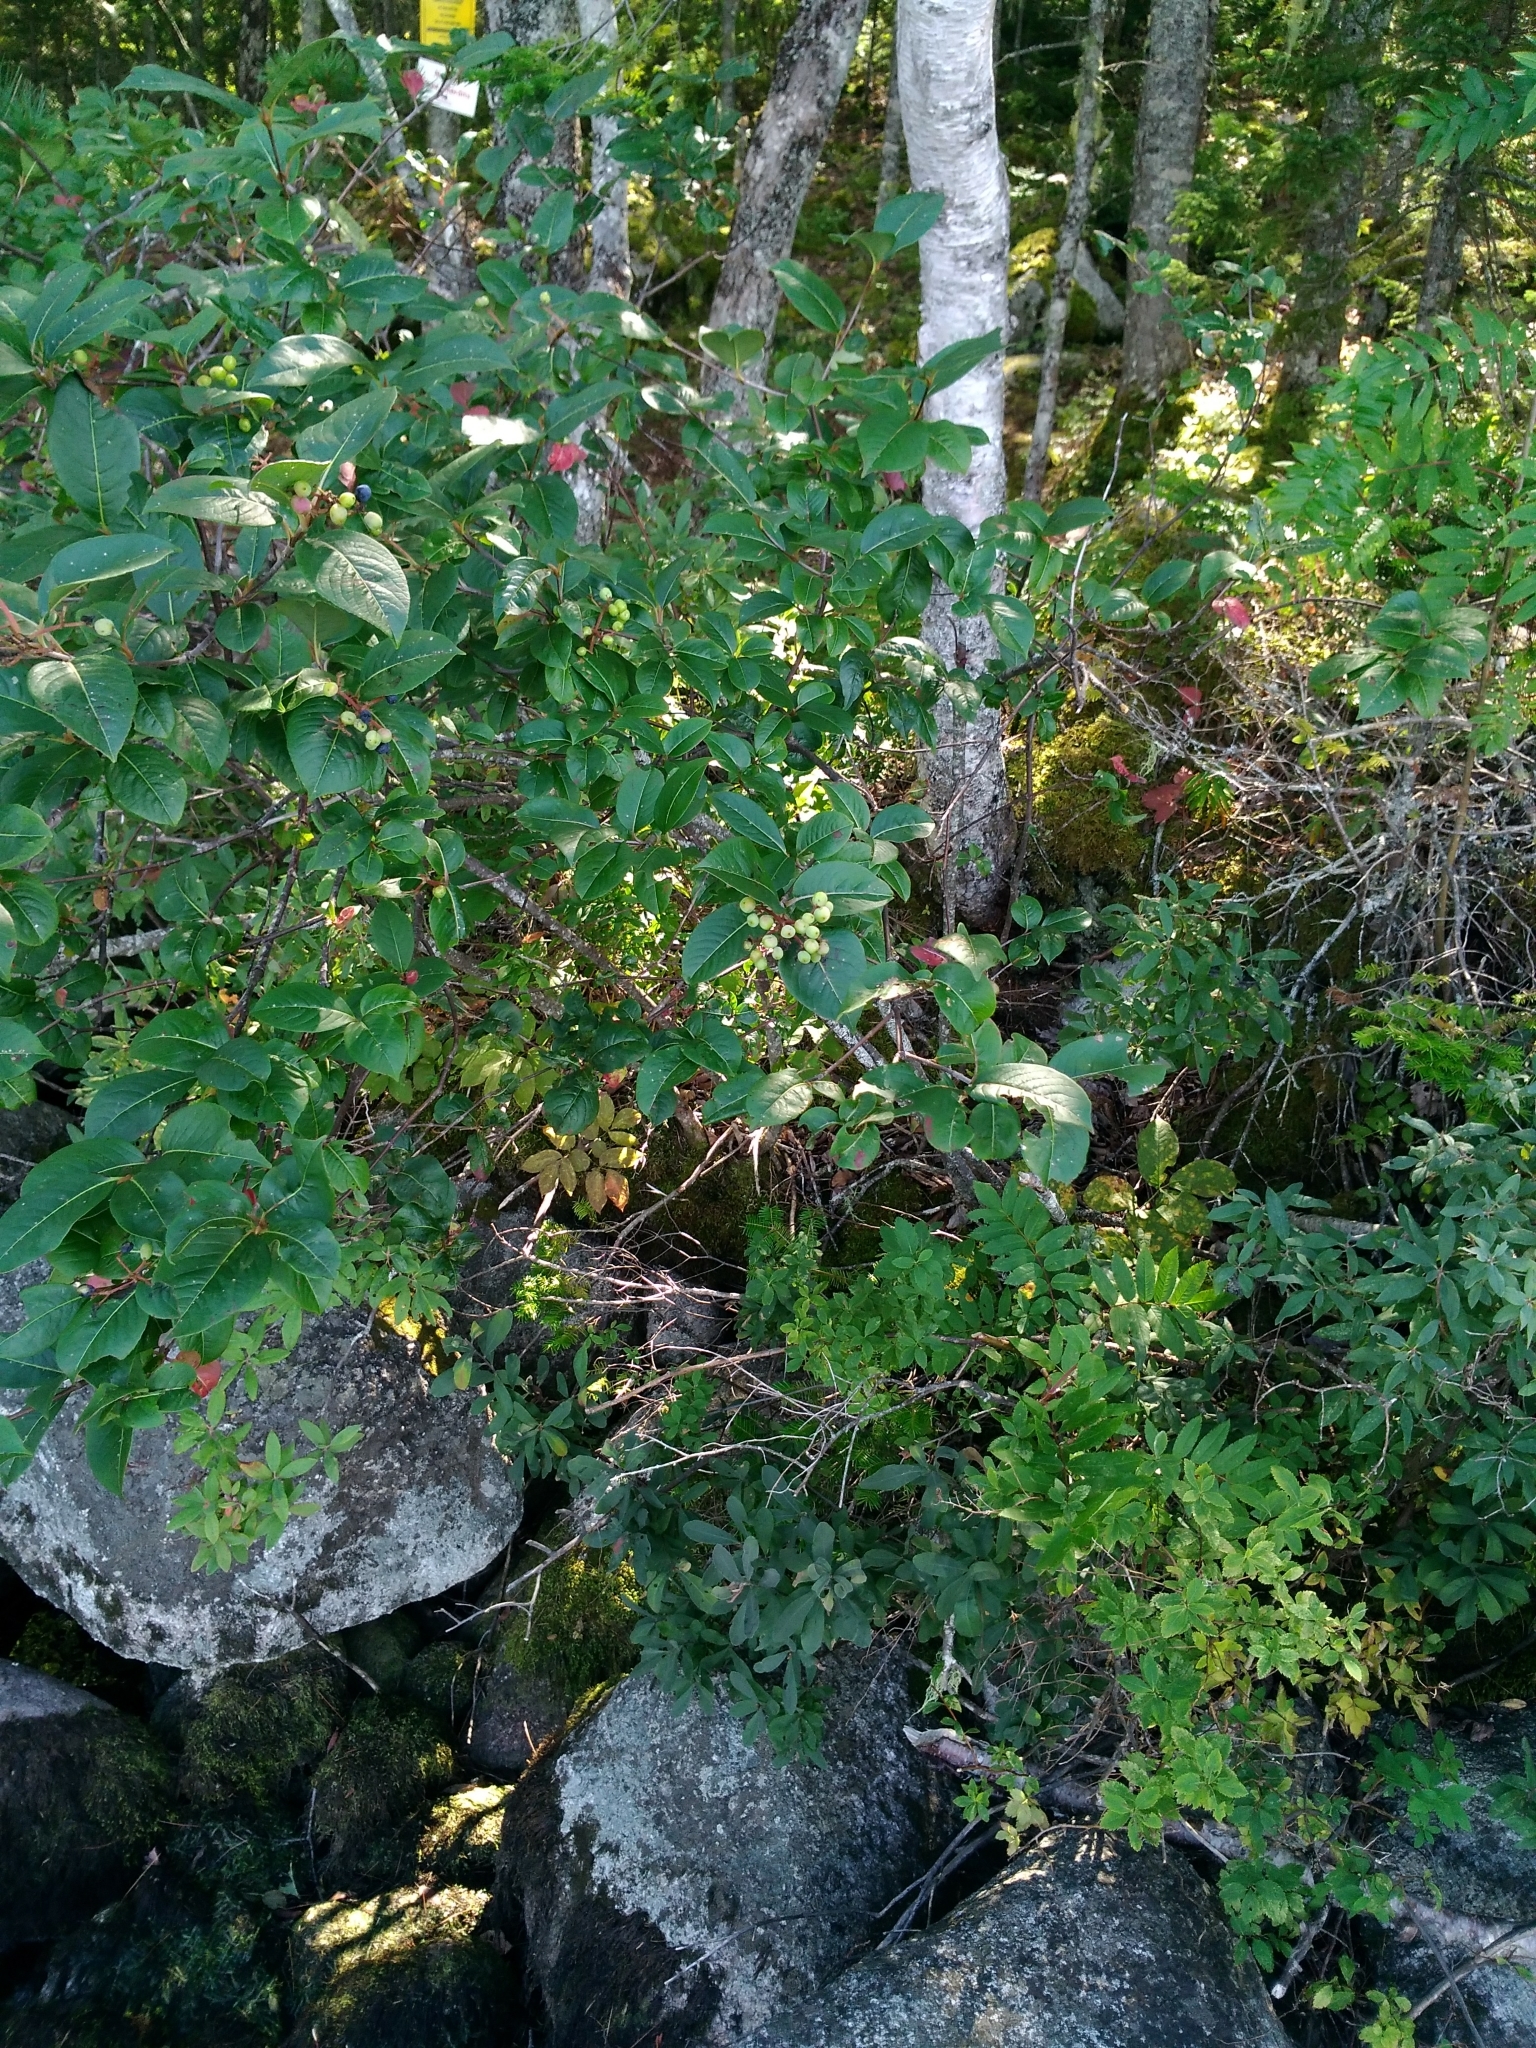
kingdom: Plantae
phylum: Tracheophyta
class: Magnoliopsida
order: Dipsacales
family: Viburnaceae
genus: Viburnum
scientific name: Viburnum cassinoides
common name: Swamp haw
